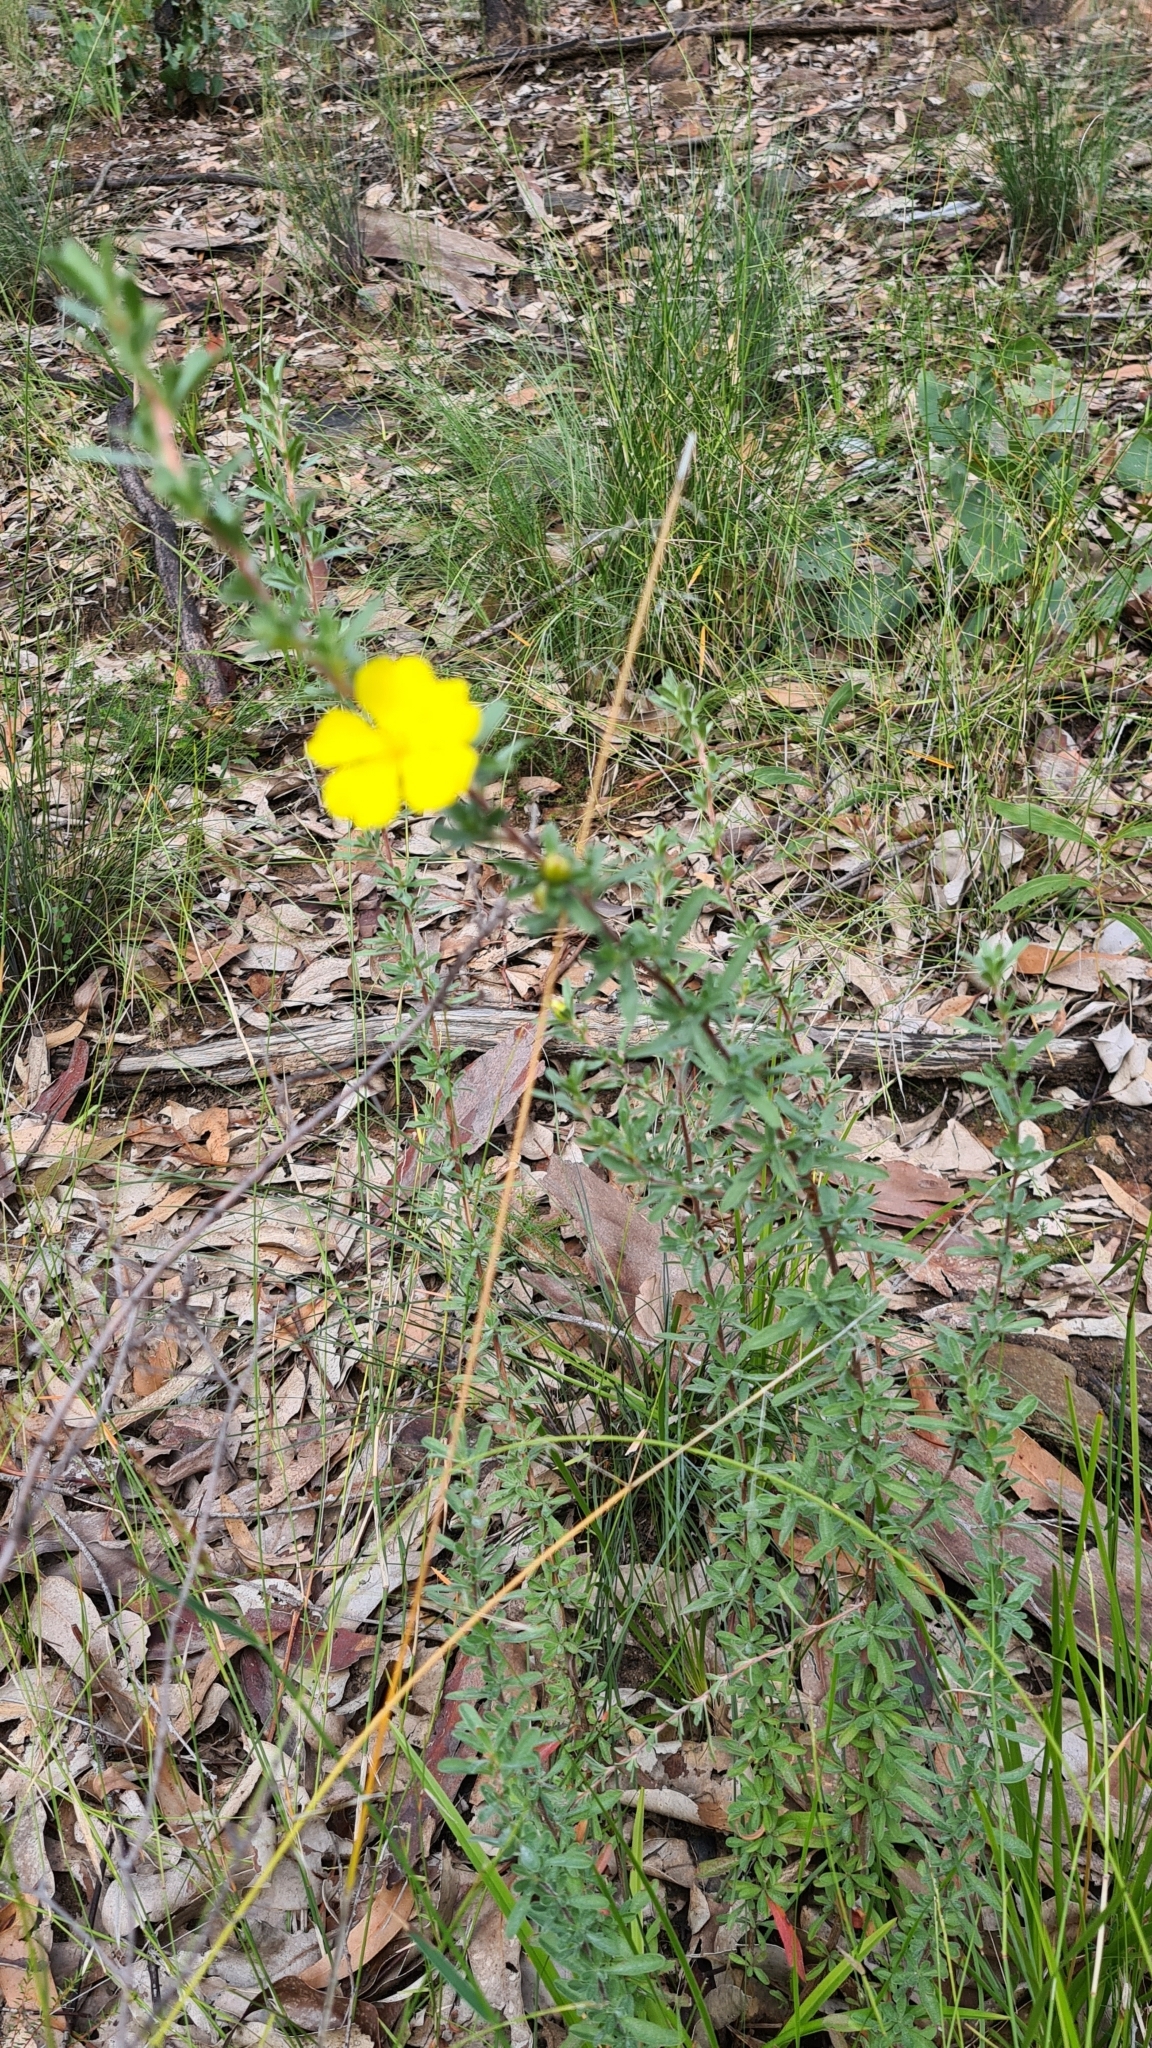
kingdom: Plantae
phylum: Tracheophyta
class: Magnoliopsida
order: Dilleniales
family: Dilleniaceae
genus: Hibbertia
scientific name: Hibbertia linearis
